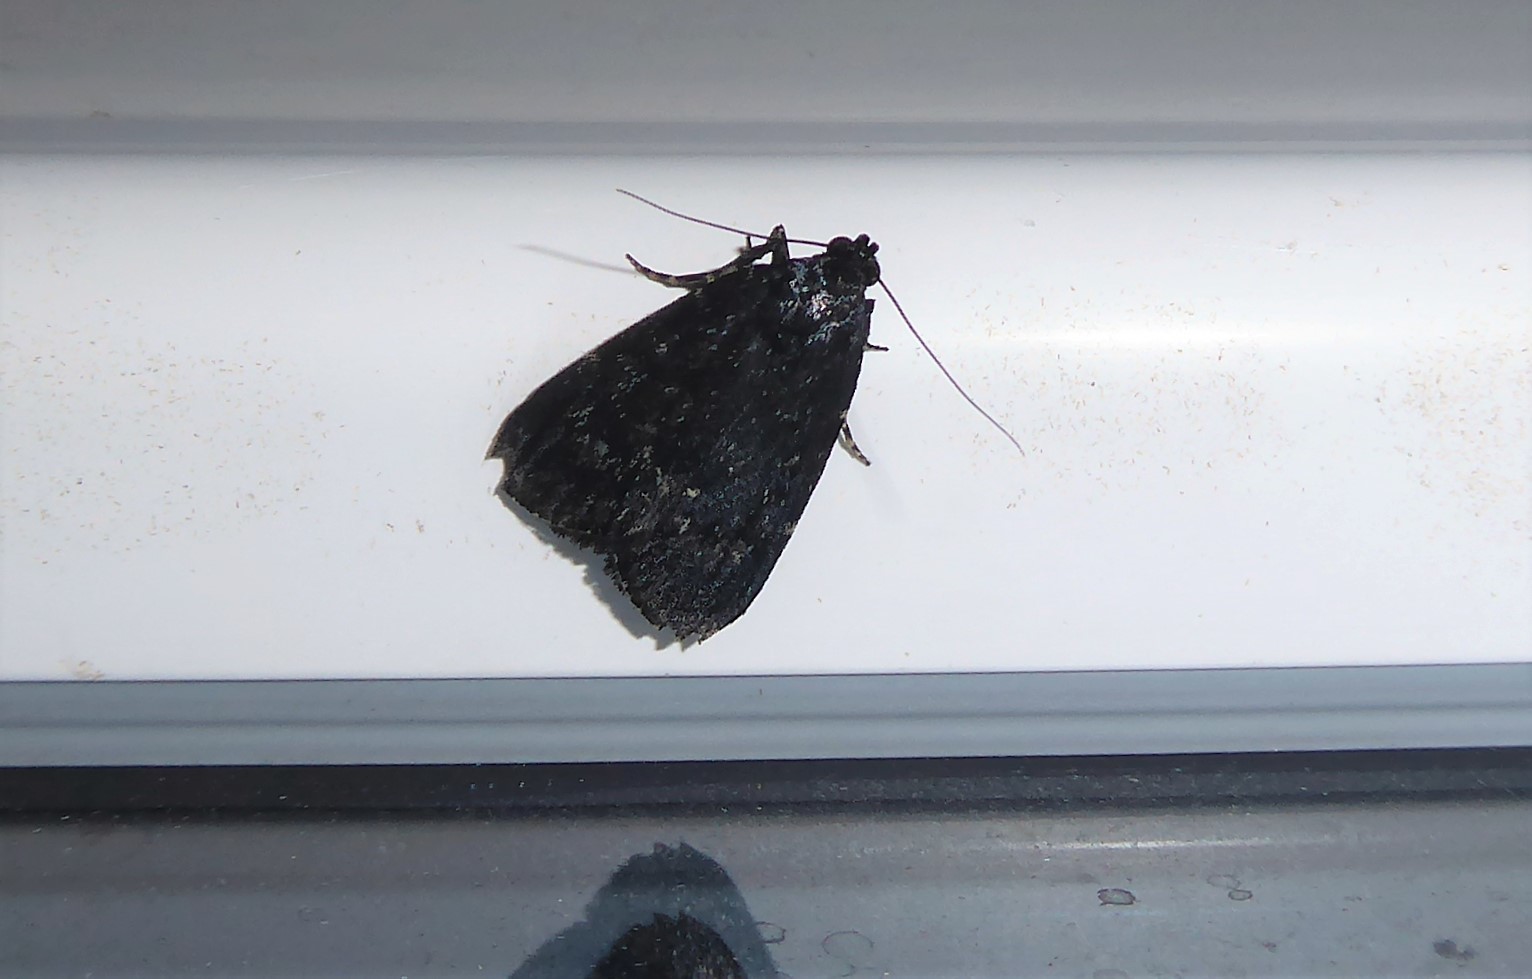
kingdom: Animalia
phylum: Arthropoda
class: Insecta
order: Lepidoptera
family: Pyralidae
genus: Stericta
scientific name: Stericta carbonalis
